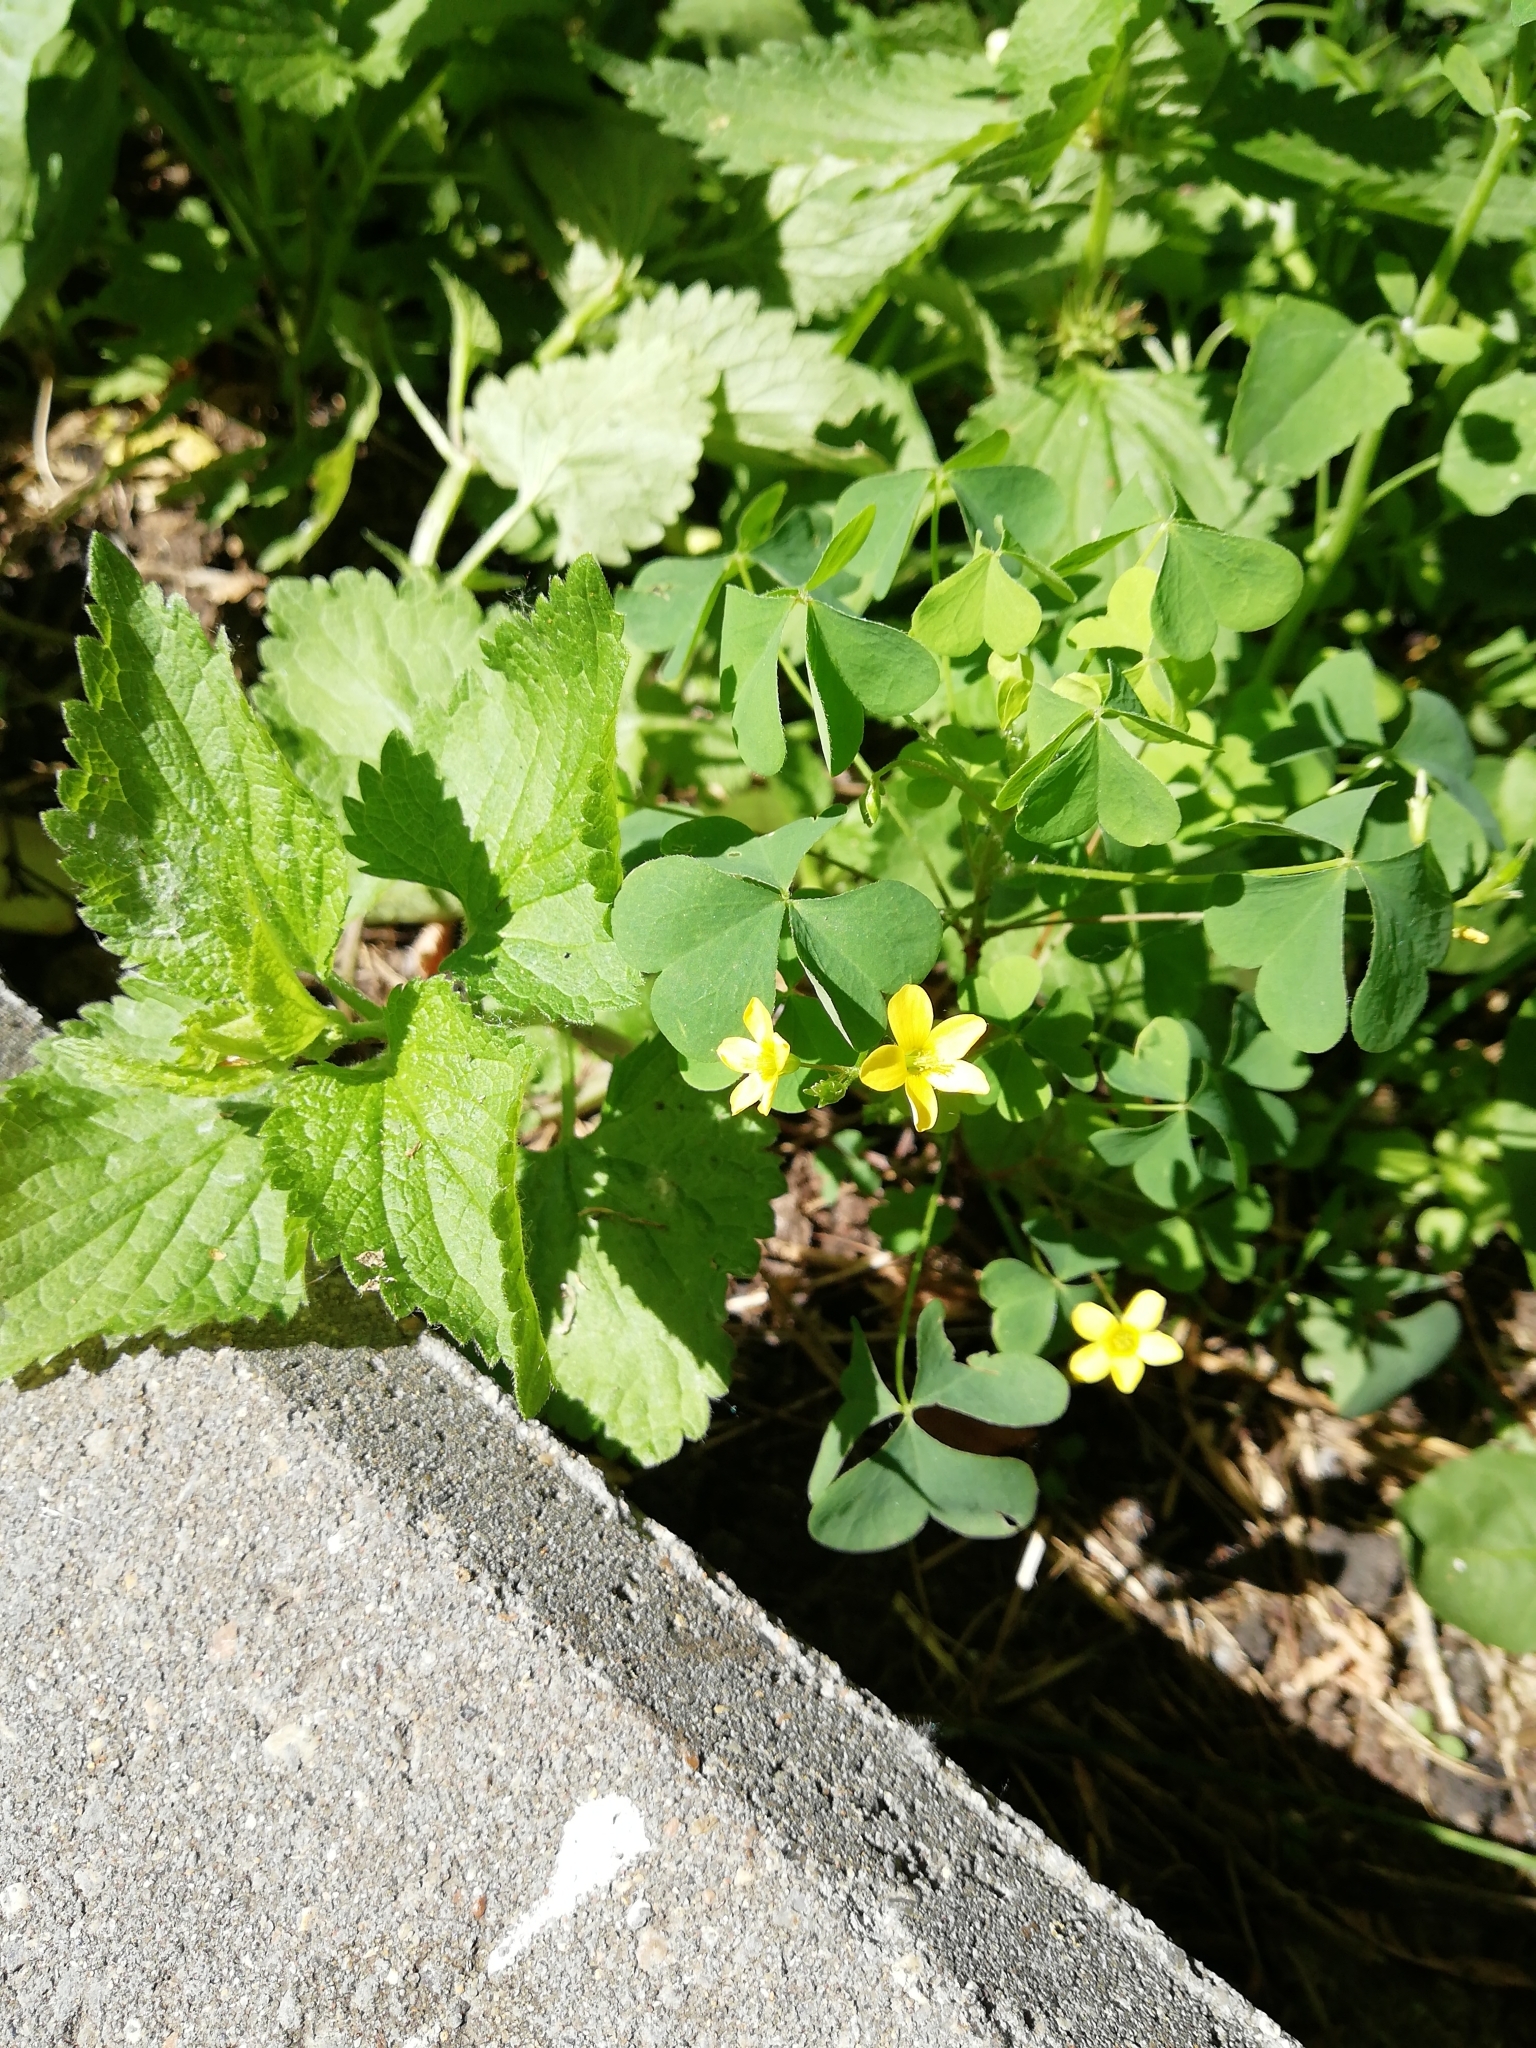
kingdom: Plantae
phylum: Tracheophyta
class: Magnoliopsida
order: Oxalidales
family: Oxalidaceae
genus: Oxalis
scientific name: Oxalis stricta
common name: Upright yellow-sorrel
